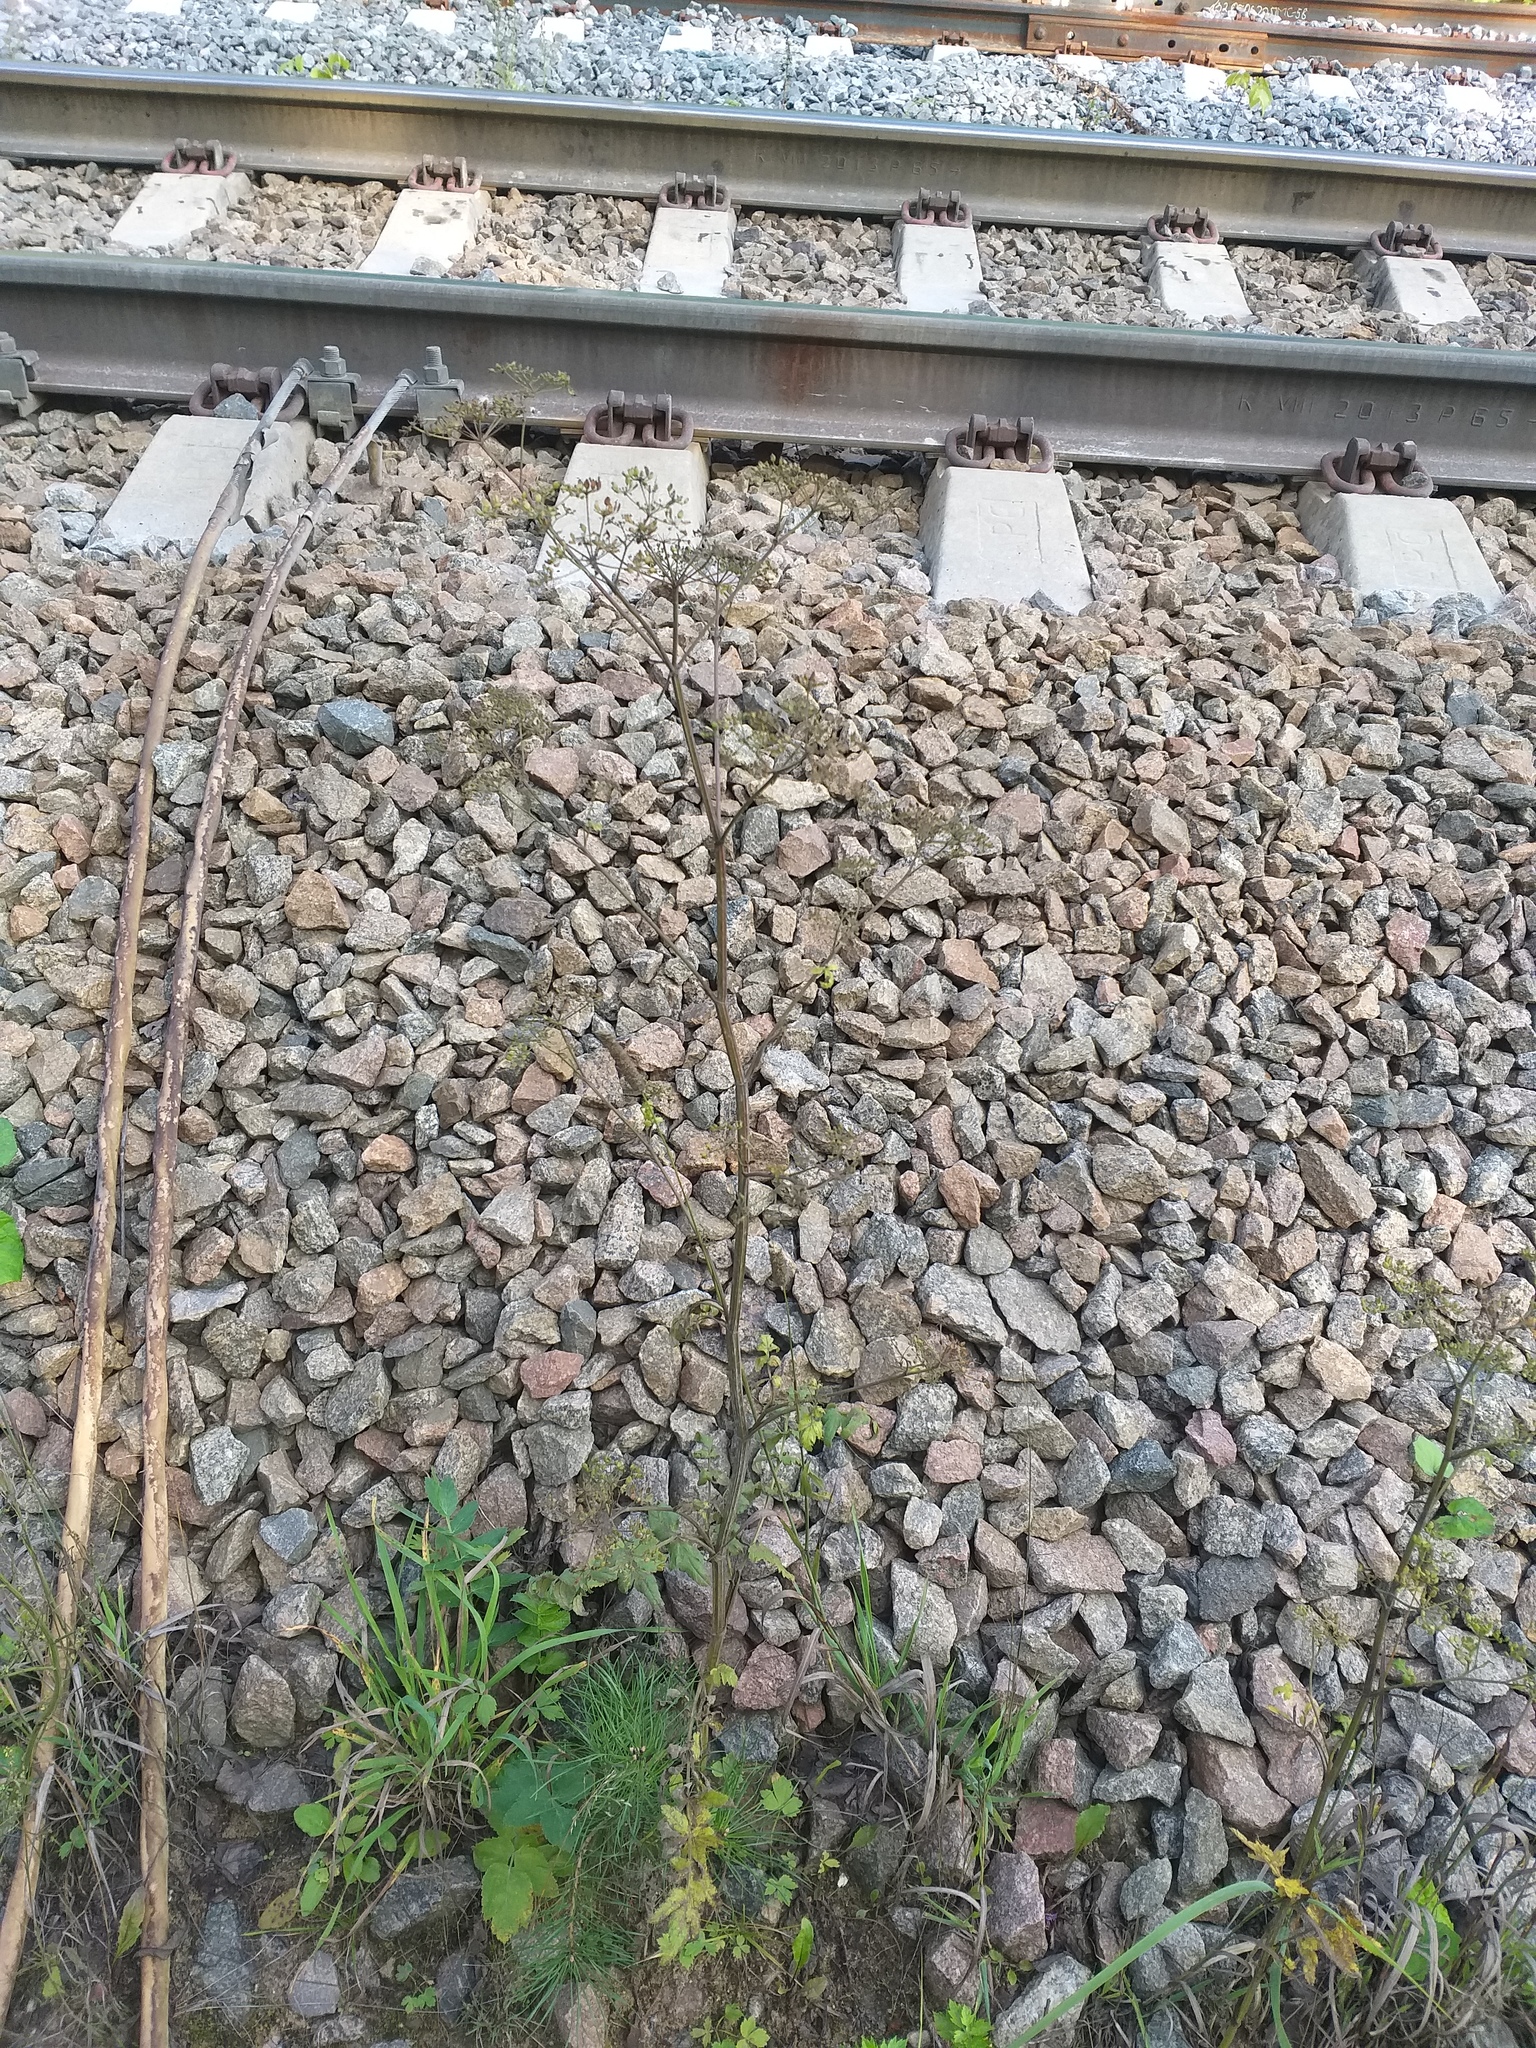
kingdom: Plantae
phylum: Tracheophyta
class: Magnoliopsida
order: Apiales
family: Apiaceae
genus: Pastinaca
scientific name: Pastinaca sativa
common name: Wild parsnip
